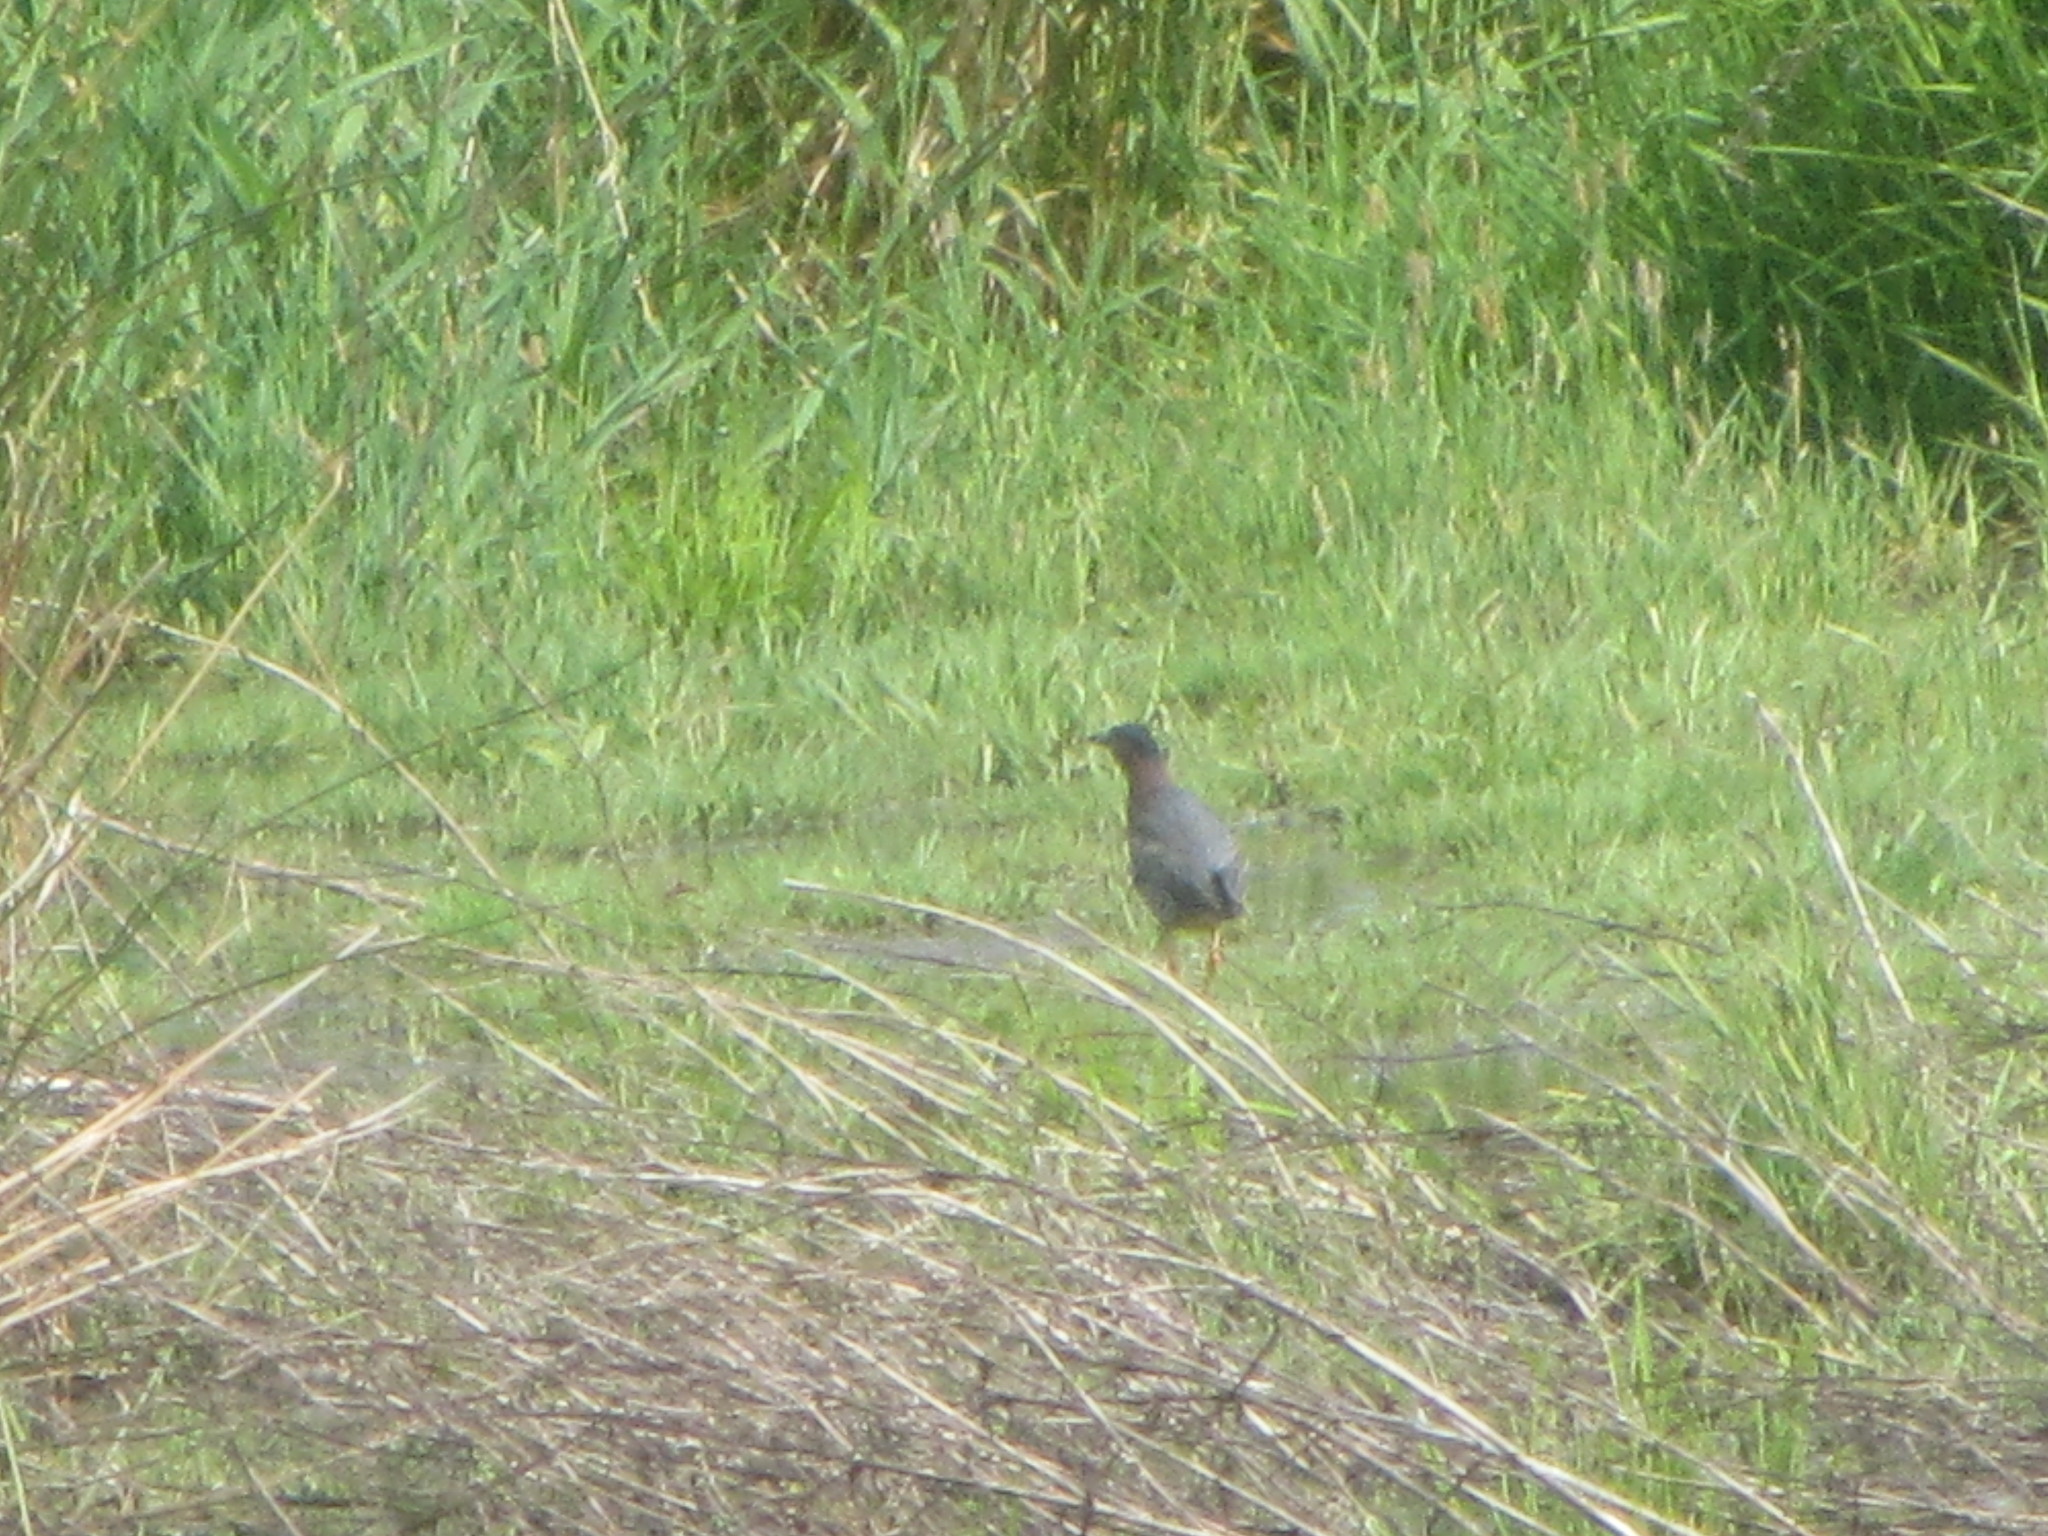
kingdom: Animalia
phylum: Chordata
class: Aves
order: Pelecaniformes
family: Ardeidae
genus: Butorides
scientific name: Butorides virescens
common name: Green heron
